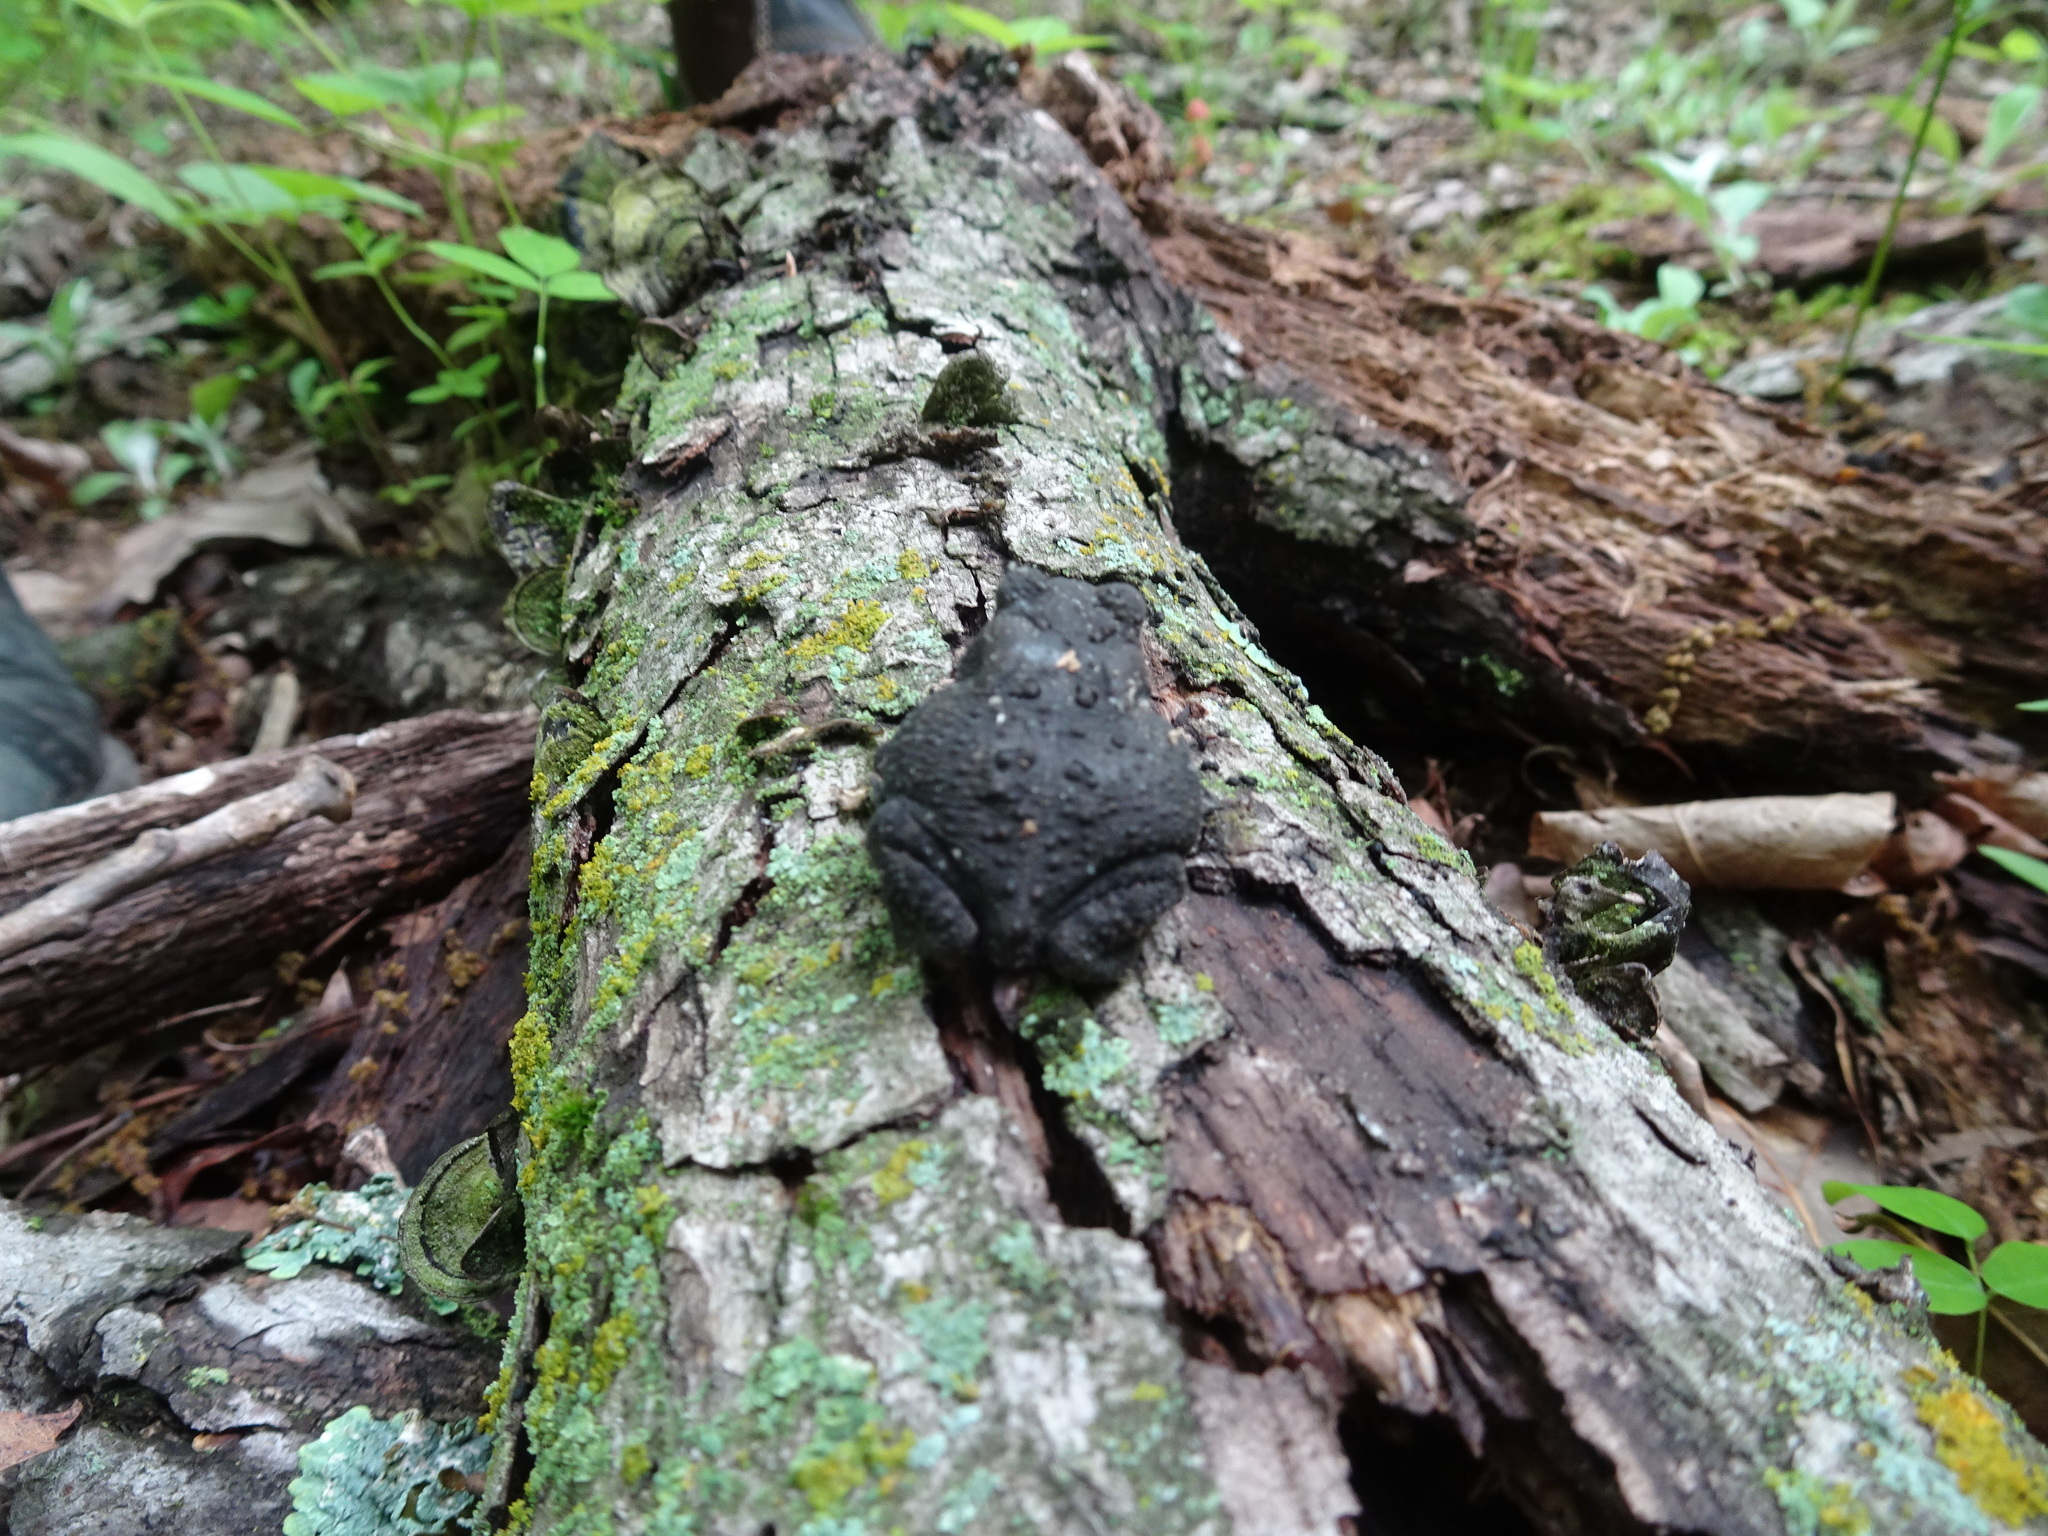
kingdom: Animalia
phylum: Chordata
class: Amphibia
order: Anura
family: Bufonidae
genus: Anaxyrus
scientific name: Anaxyrus americanus
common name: American toad
